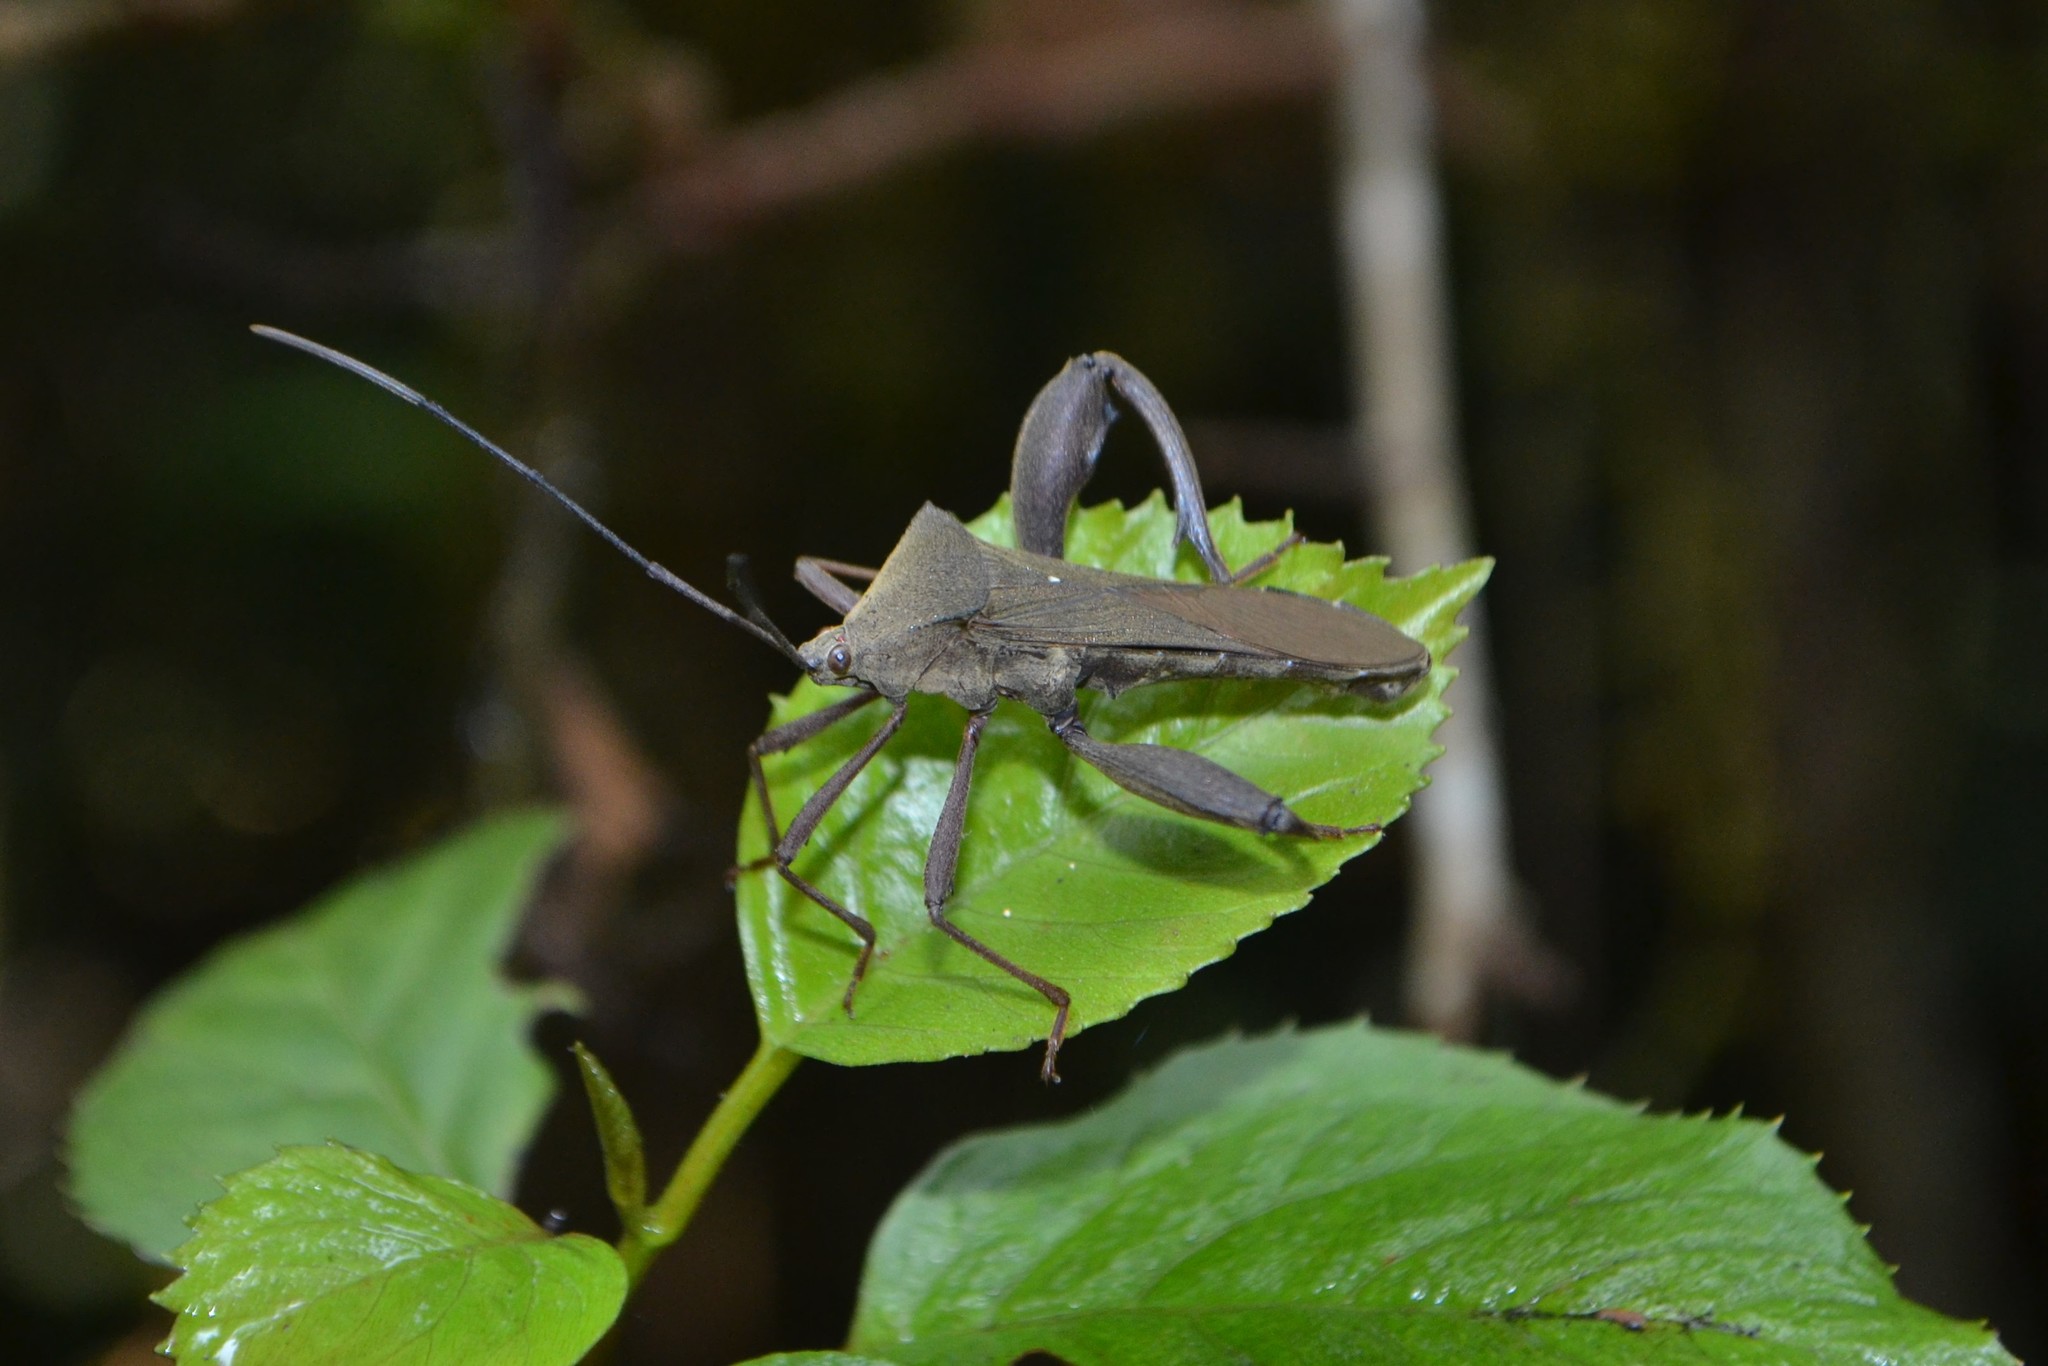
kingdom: Animalia
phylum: Arthropoda
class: Insecta
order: Hemiptera
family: Coreidae
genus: Xyrophoreus
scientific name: Xyrophoreus cristatus
